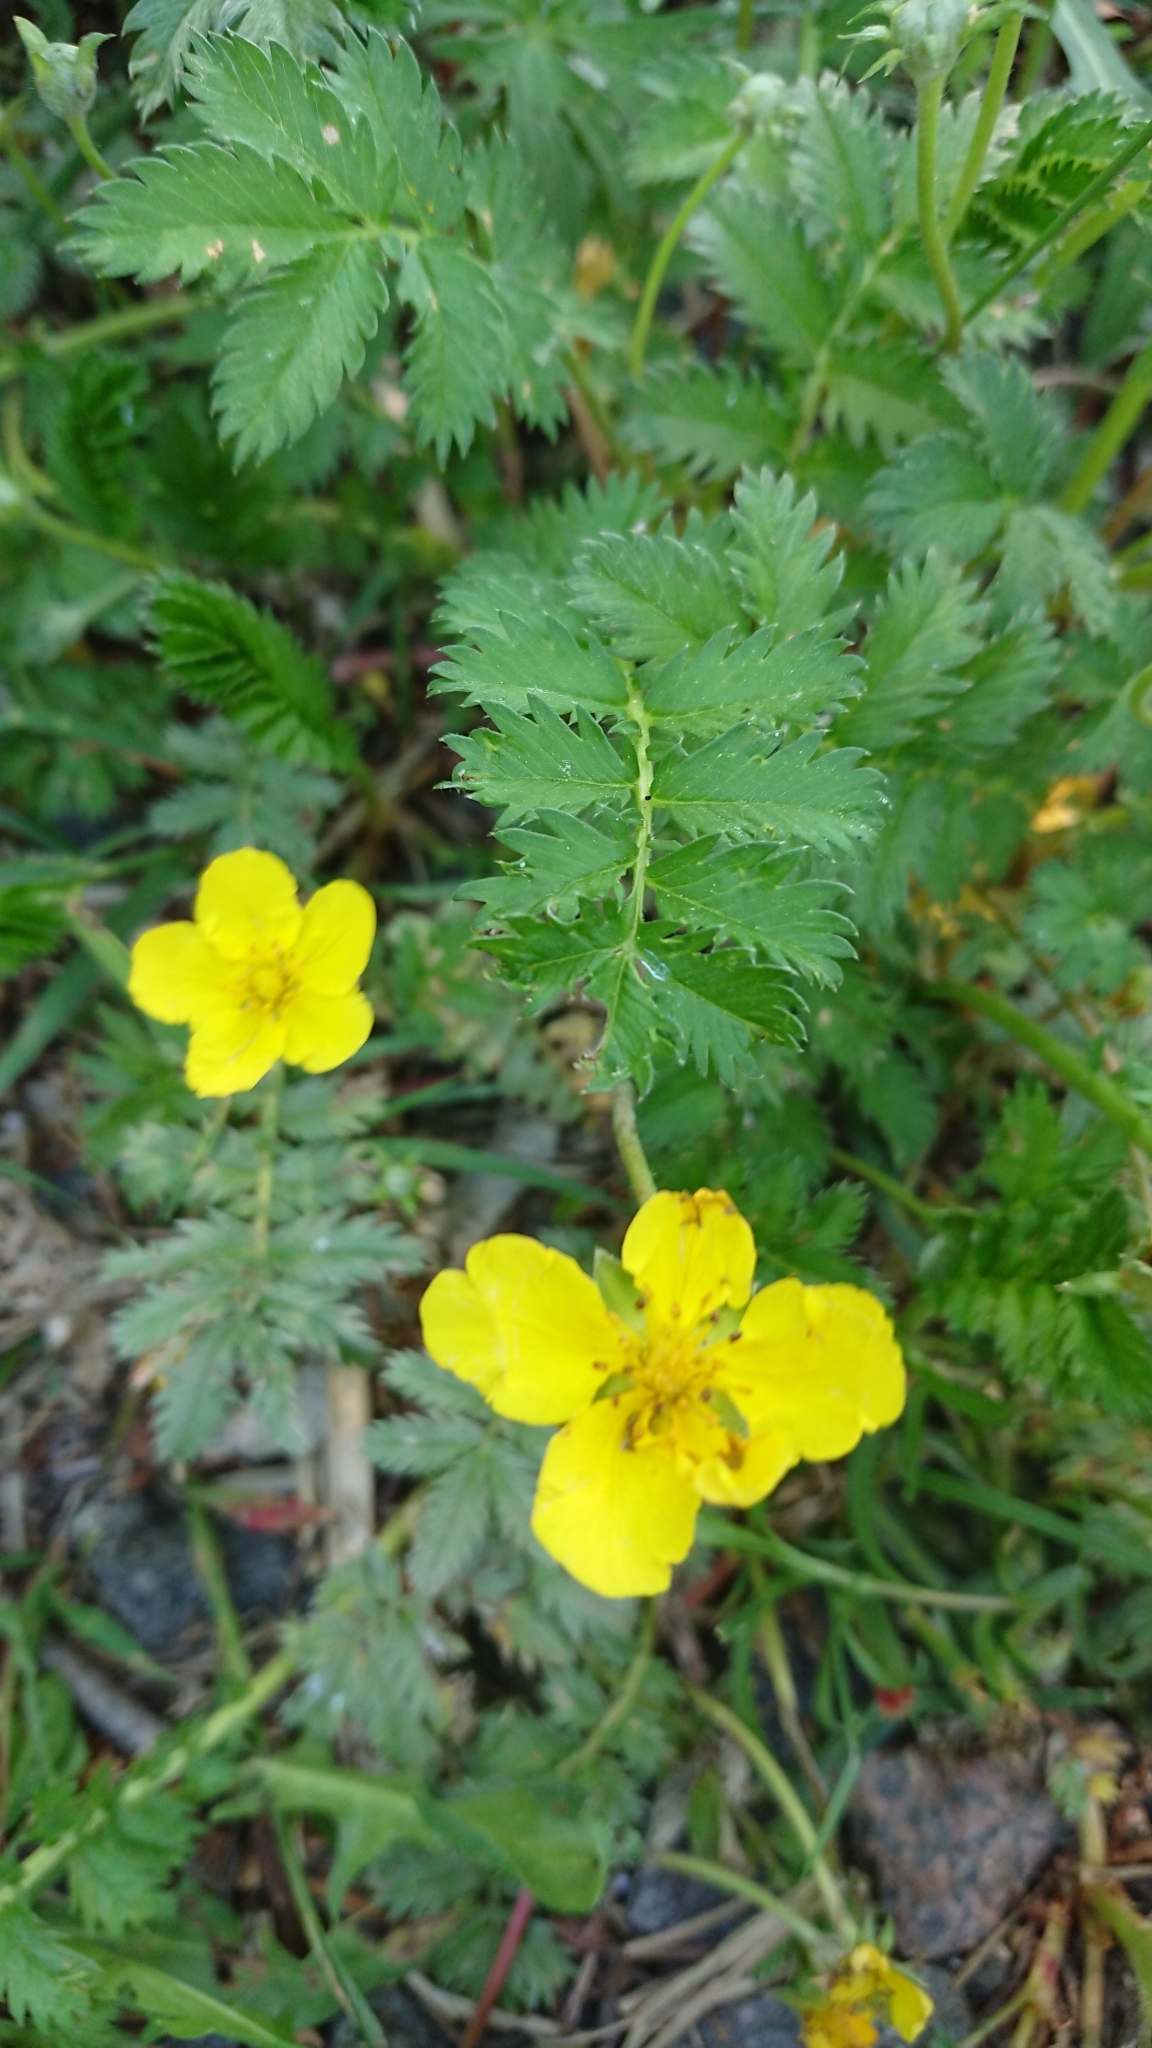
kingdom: Plantae
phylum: Tracheophyta
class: Magnoliopsida
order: Rosales
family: Rosaceae
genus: Argentina
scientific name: Argentina anserina
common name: Common silverweed
